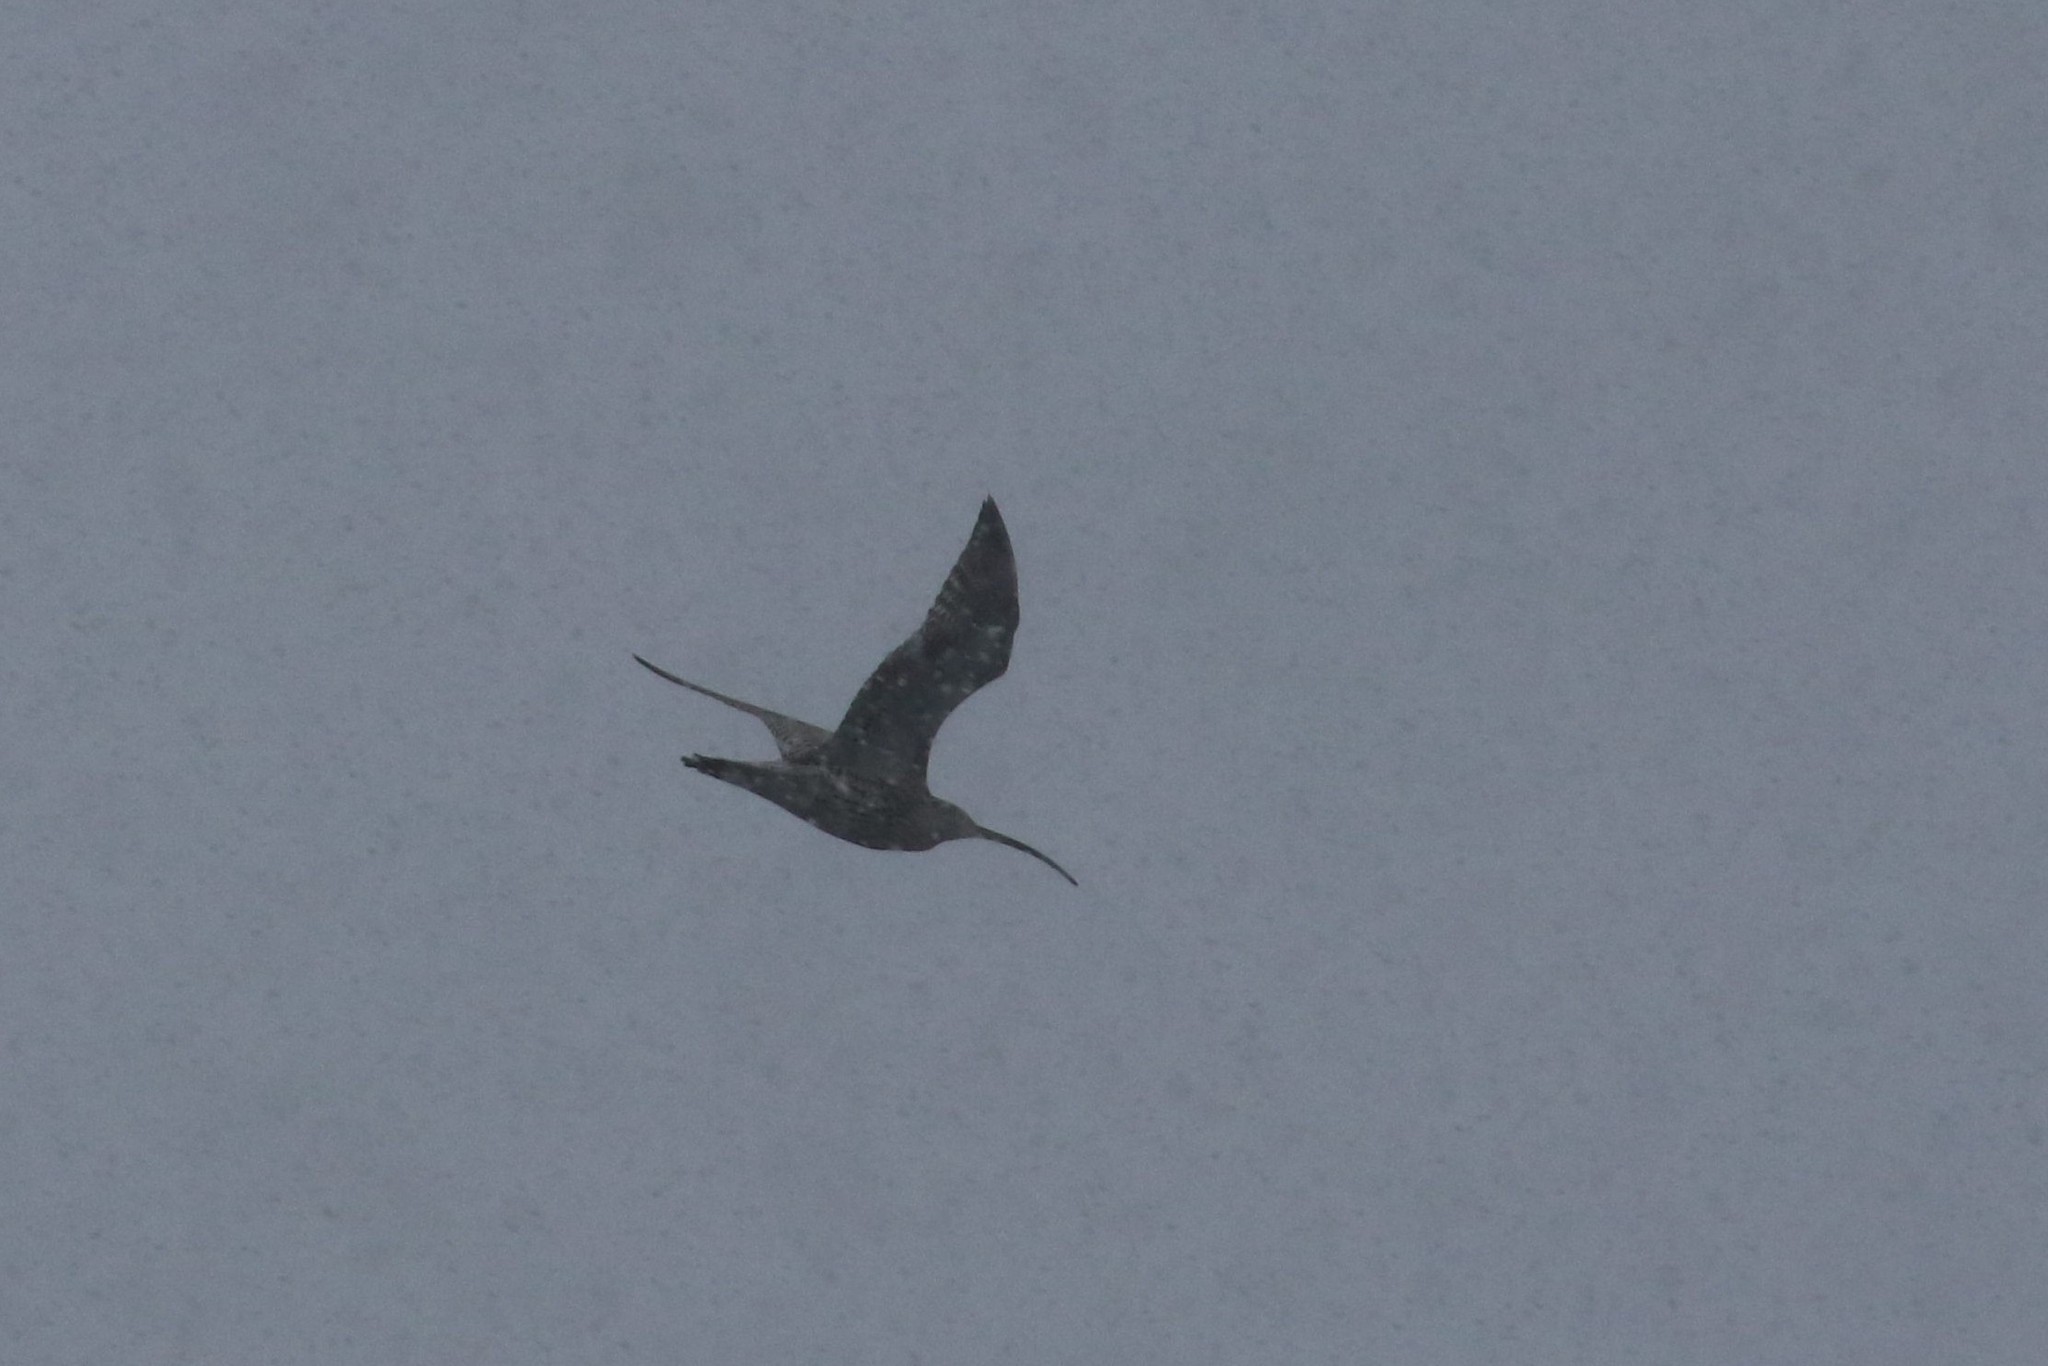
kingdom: Animalia
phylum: Chordata
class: Aves
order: Charadriiformes
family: Scolopacidae
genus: Numenius
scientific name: Numenius arquata
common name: Eurasian curlew
